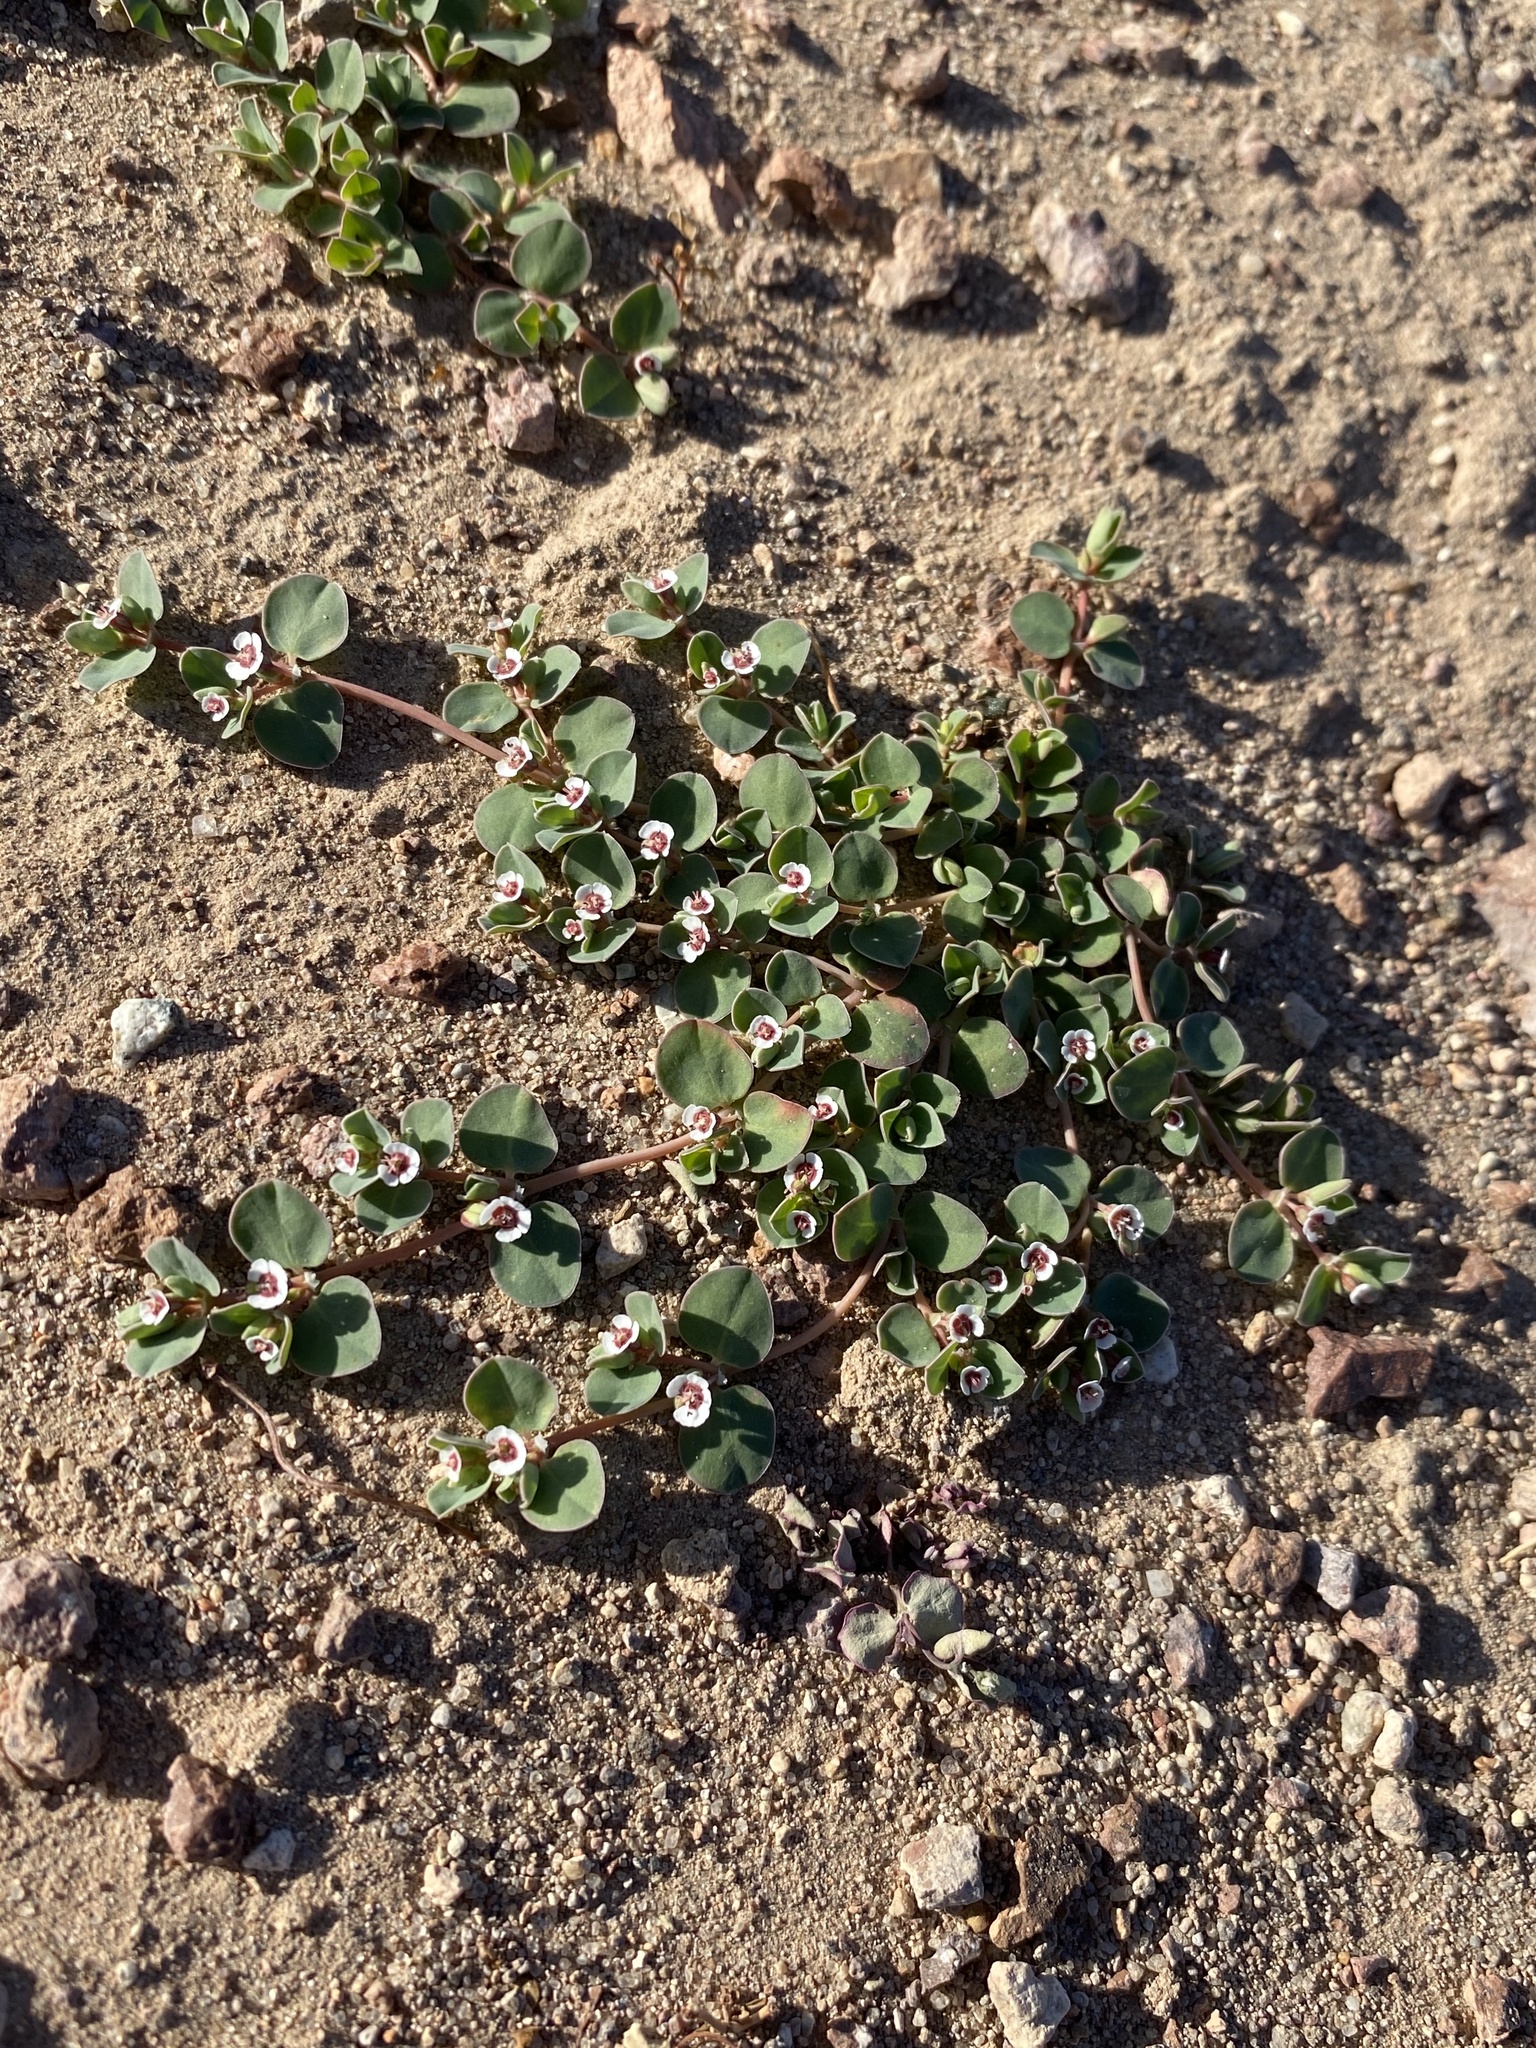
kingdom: Plantae
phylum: Tracheophyta
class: Magnoliopsida
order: Malpighiales
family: Euphorbiaceae
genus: Euphorbia
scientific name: Euphorbia albomarginata
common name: Whitemargin sandmat
